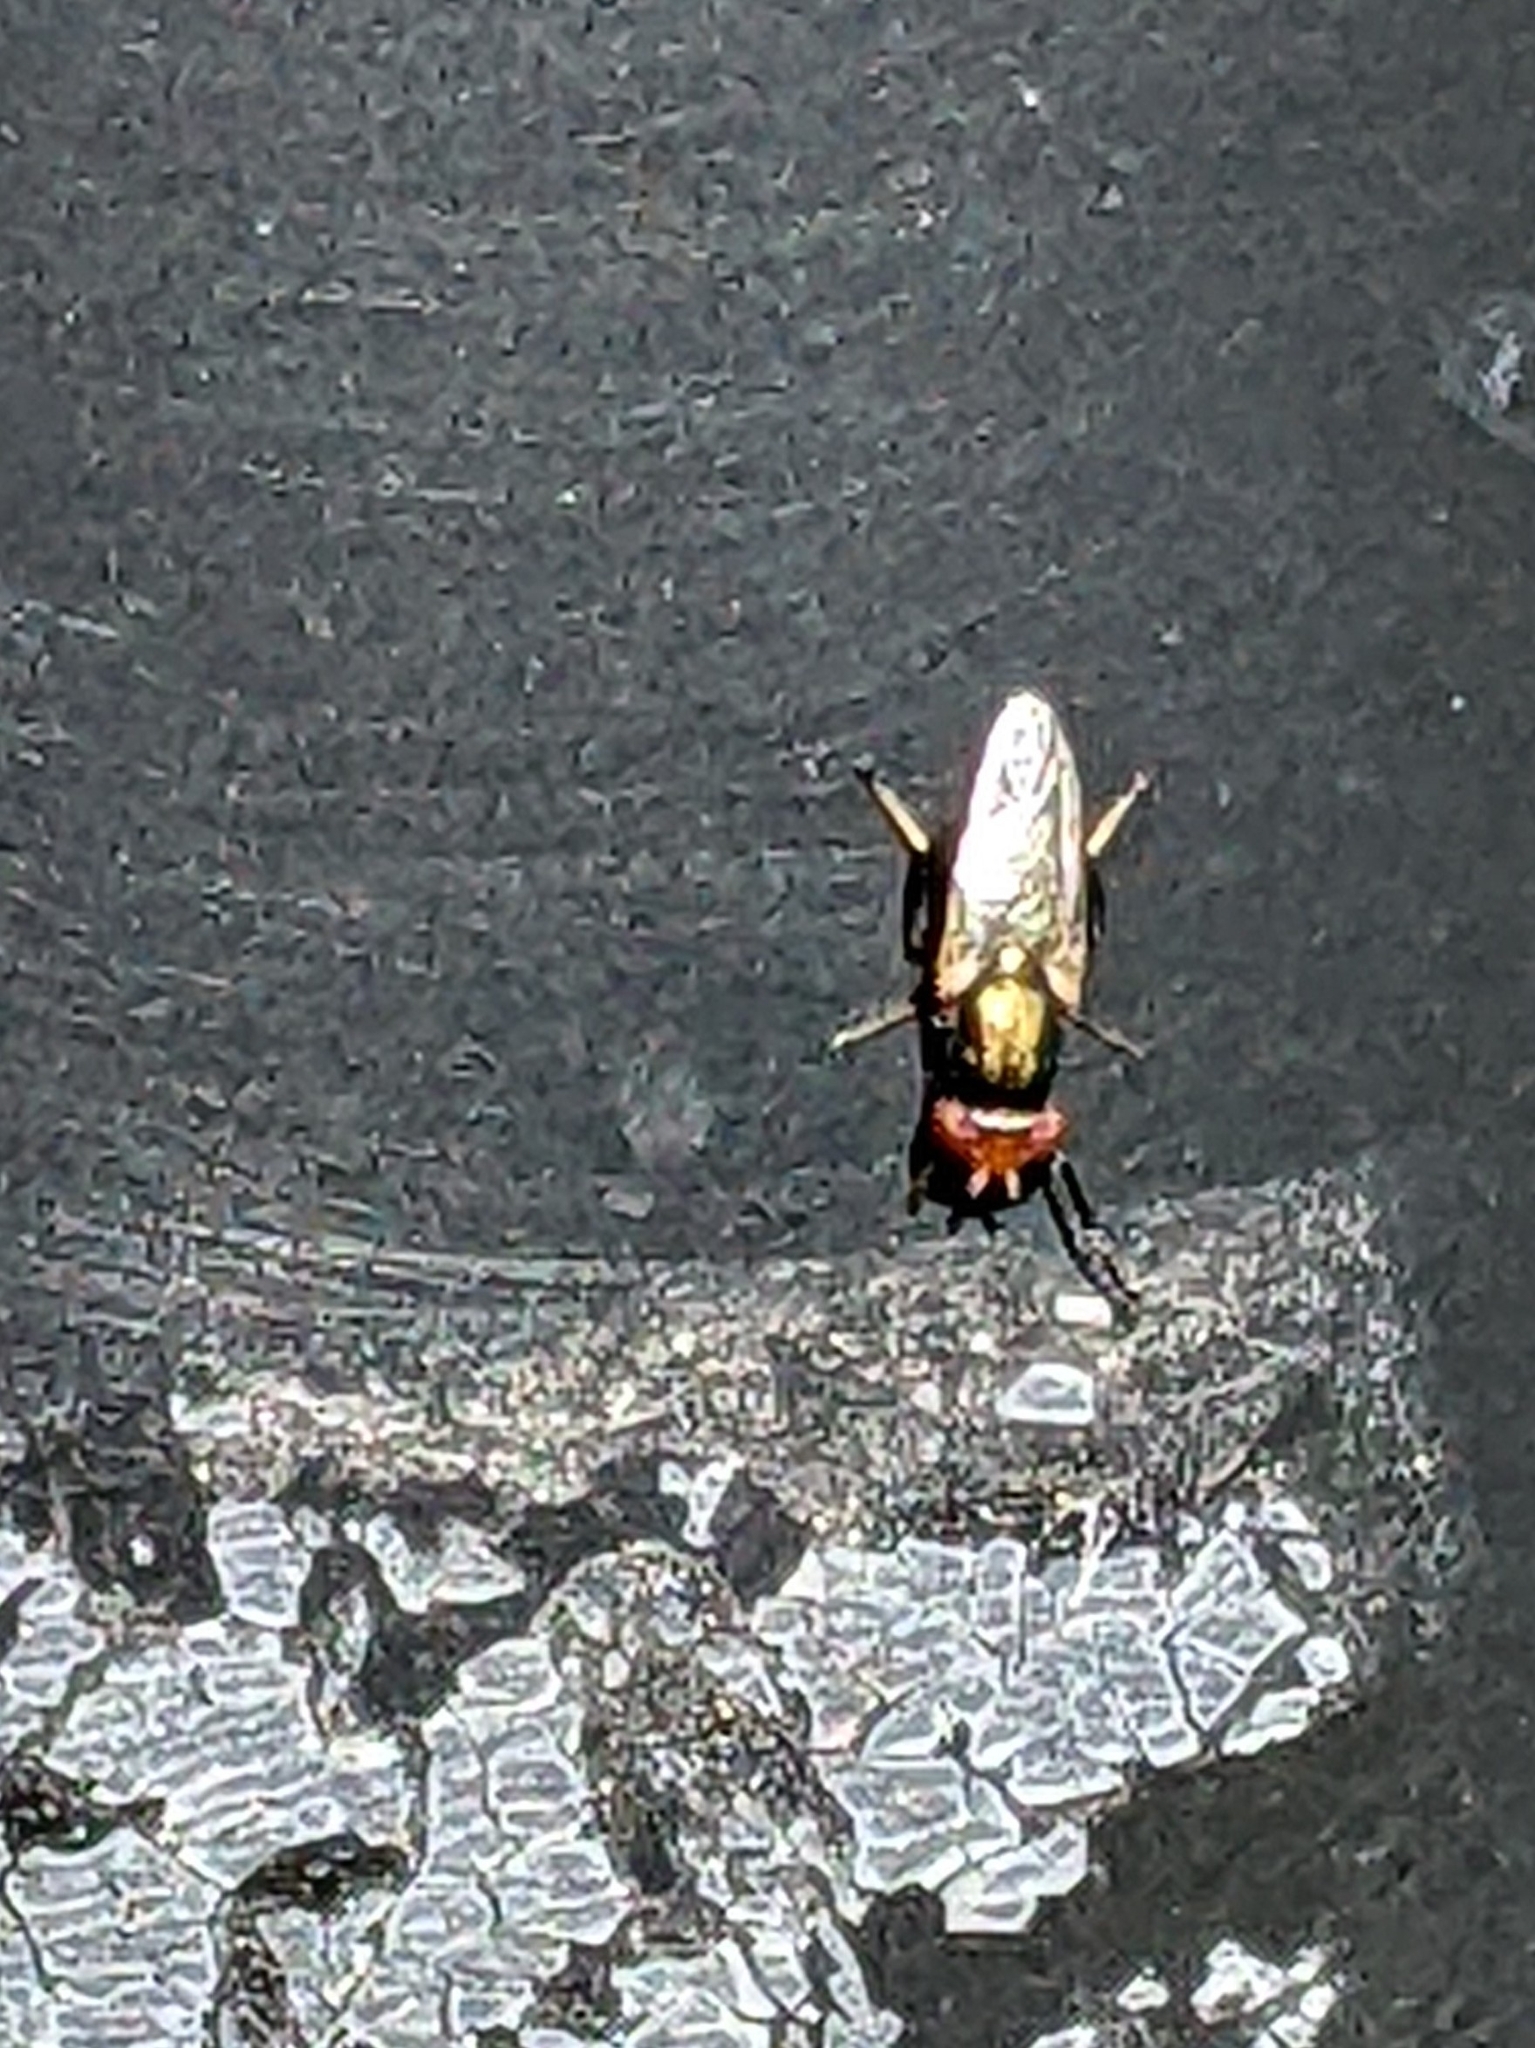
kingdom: Animalia
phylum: Arthropoda
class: Insecta
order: Diptera
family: Ulidiidae
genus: Physiphora
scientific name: Physiphora alceae
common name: Picture-winged fly
